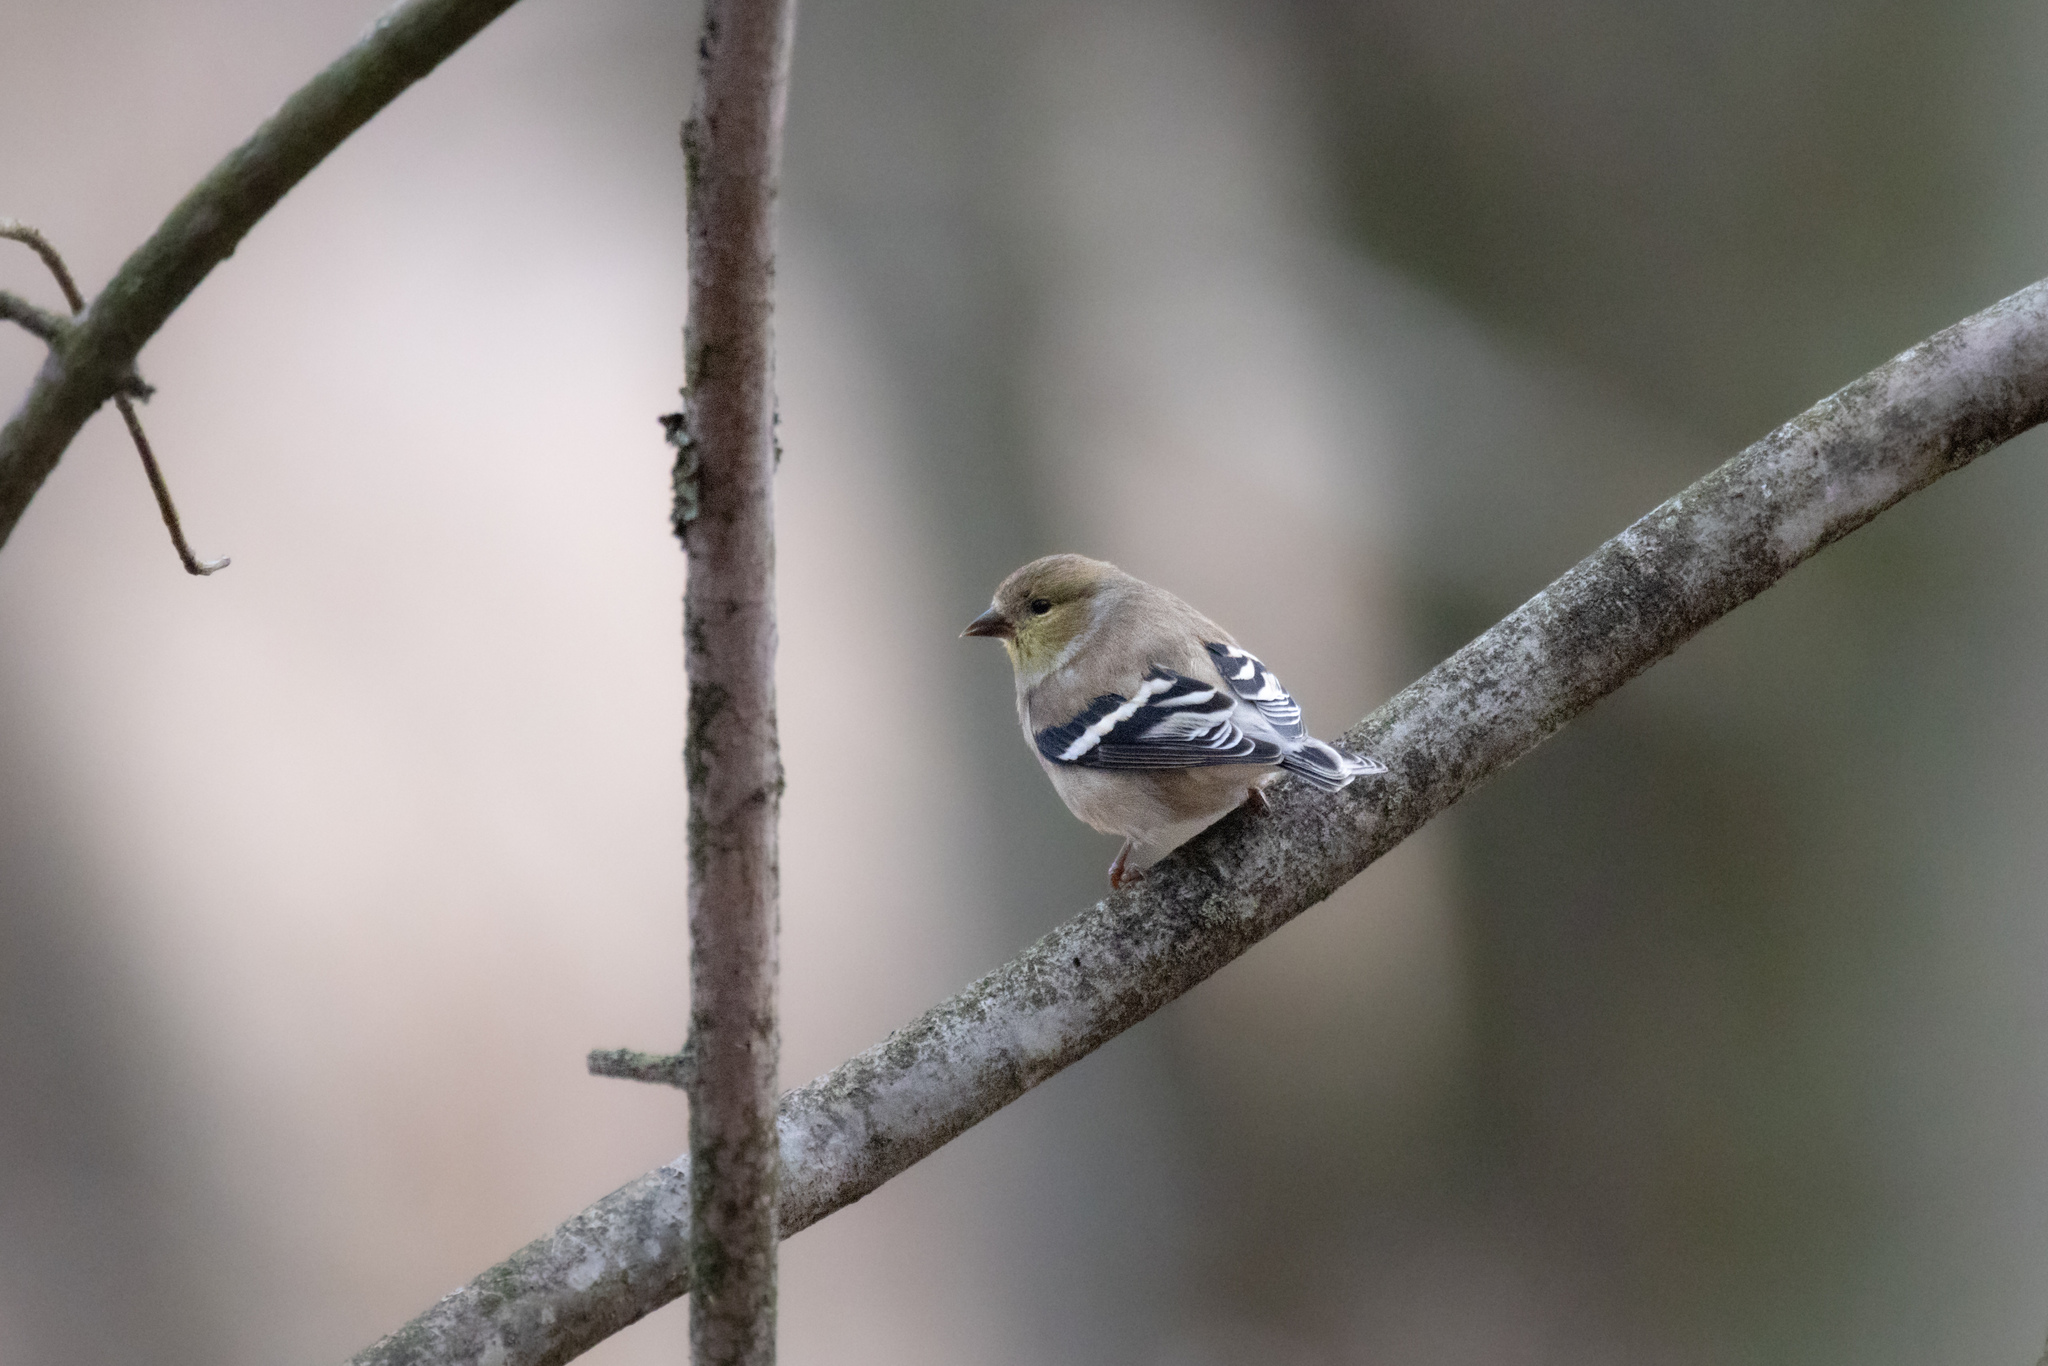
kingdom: Animalia
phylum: Chordata
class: Aves
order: Passeriformes
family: Fringillidae
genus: Spinus
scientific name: Spinus tristis
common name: American goldfinch
